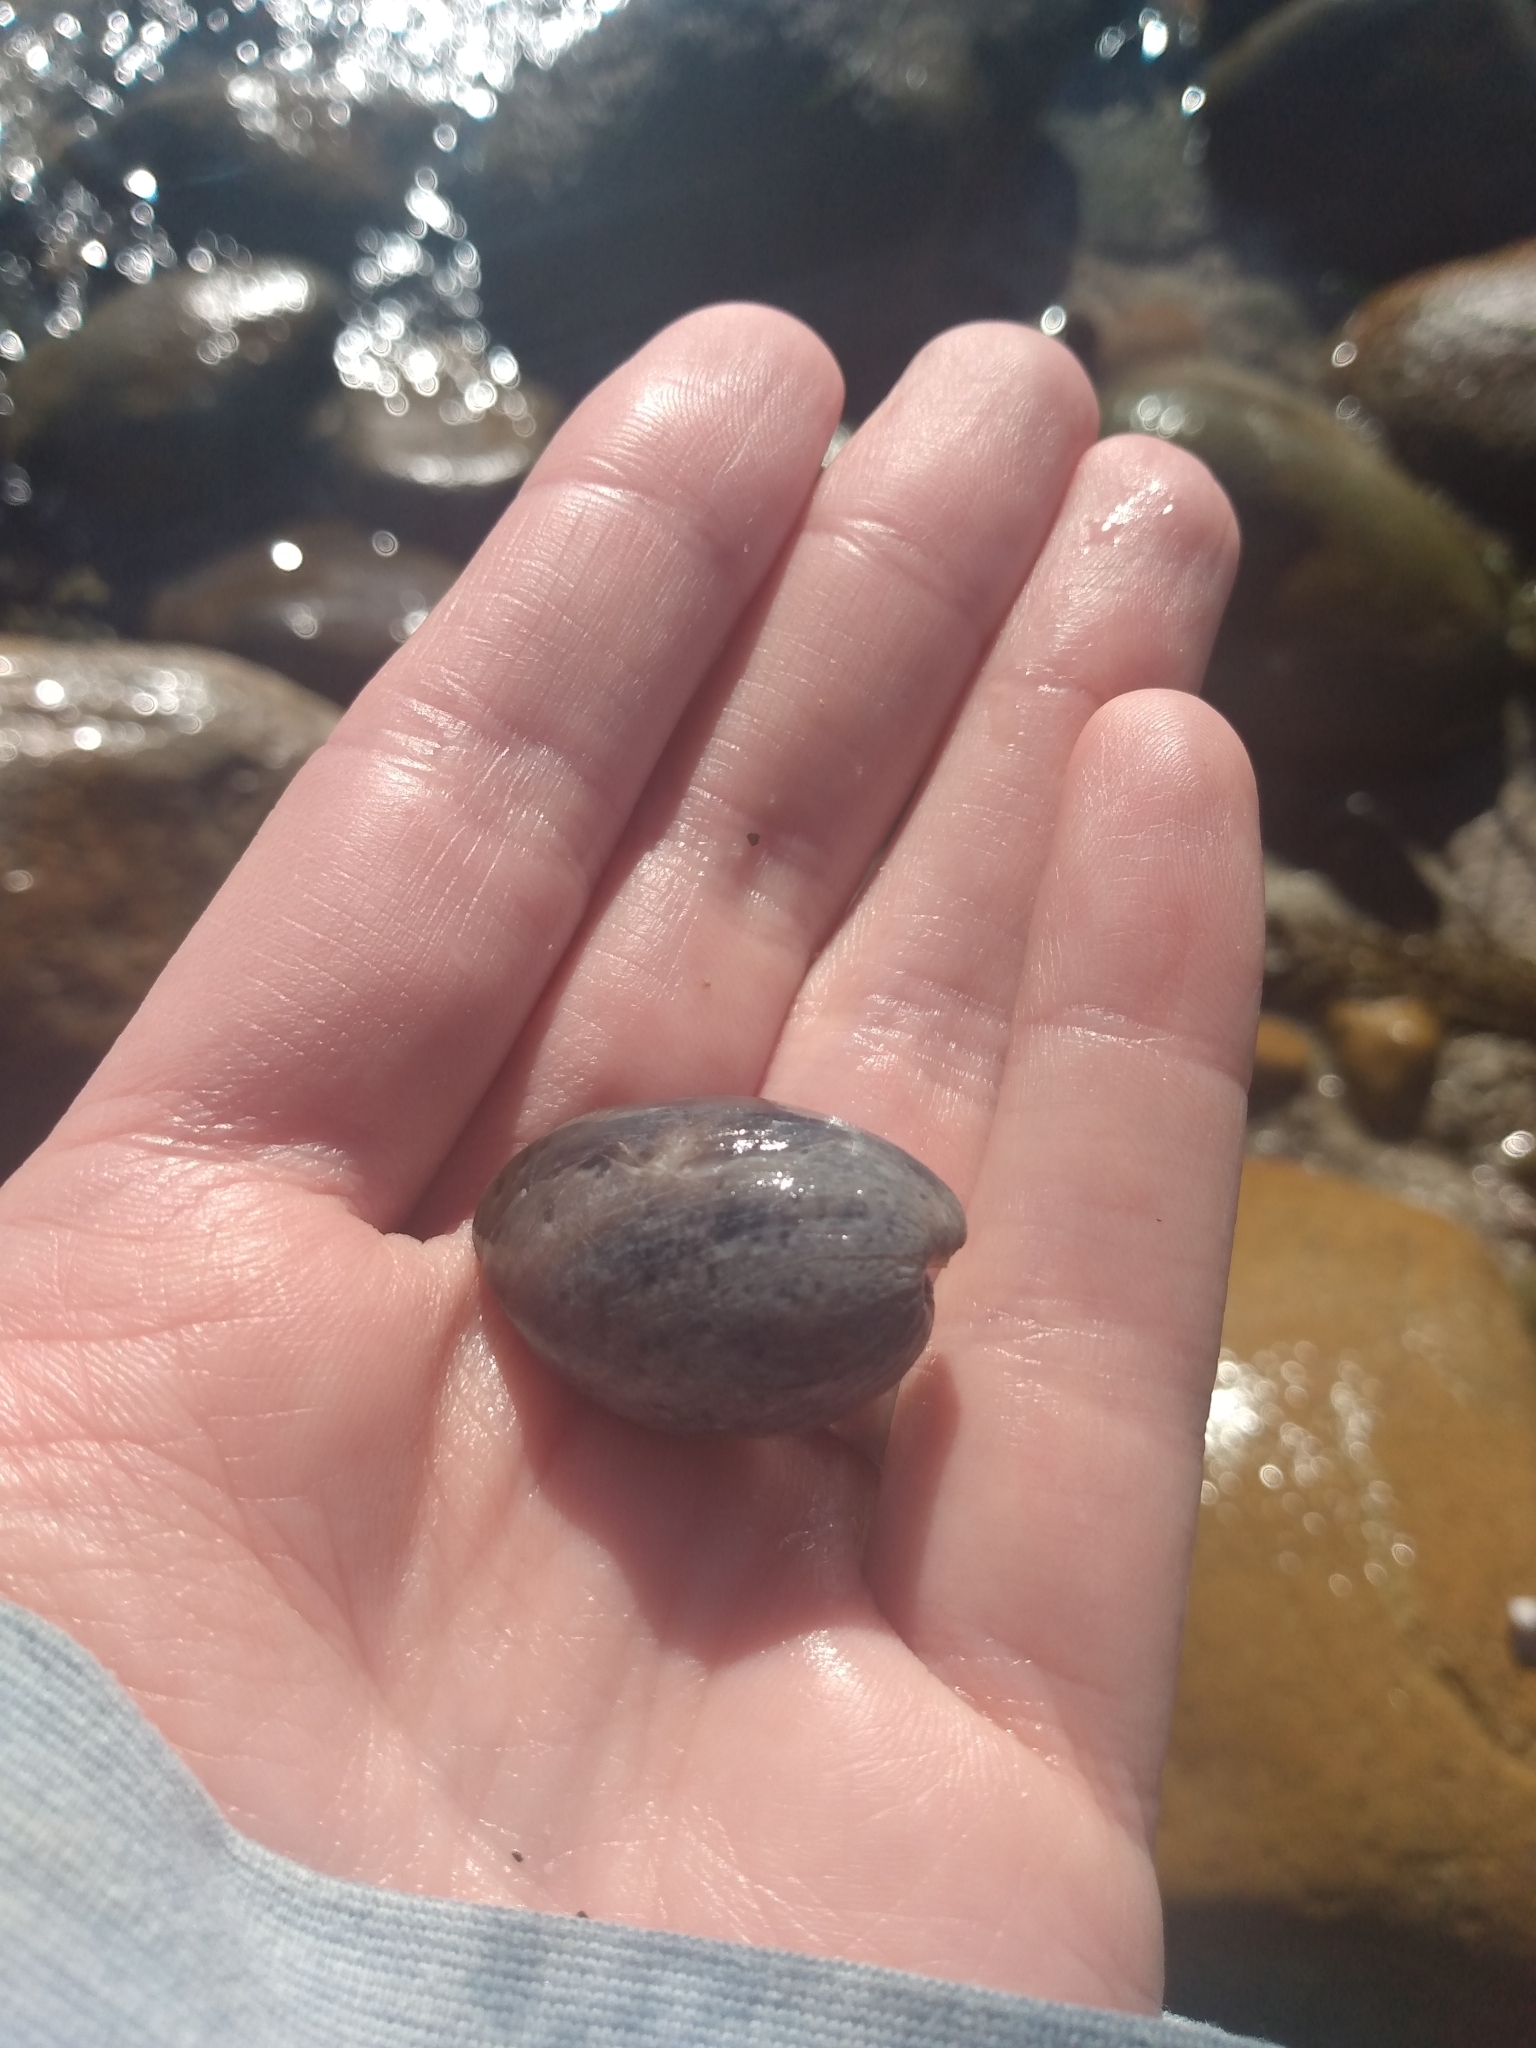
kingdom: Animalia
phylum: Mollusca
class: Gastropoda
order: Cephalaspidea
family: Bullidae
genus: Bulla
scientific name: Bulla gouldiana
